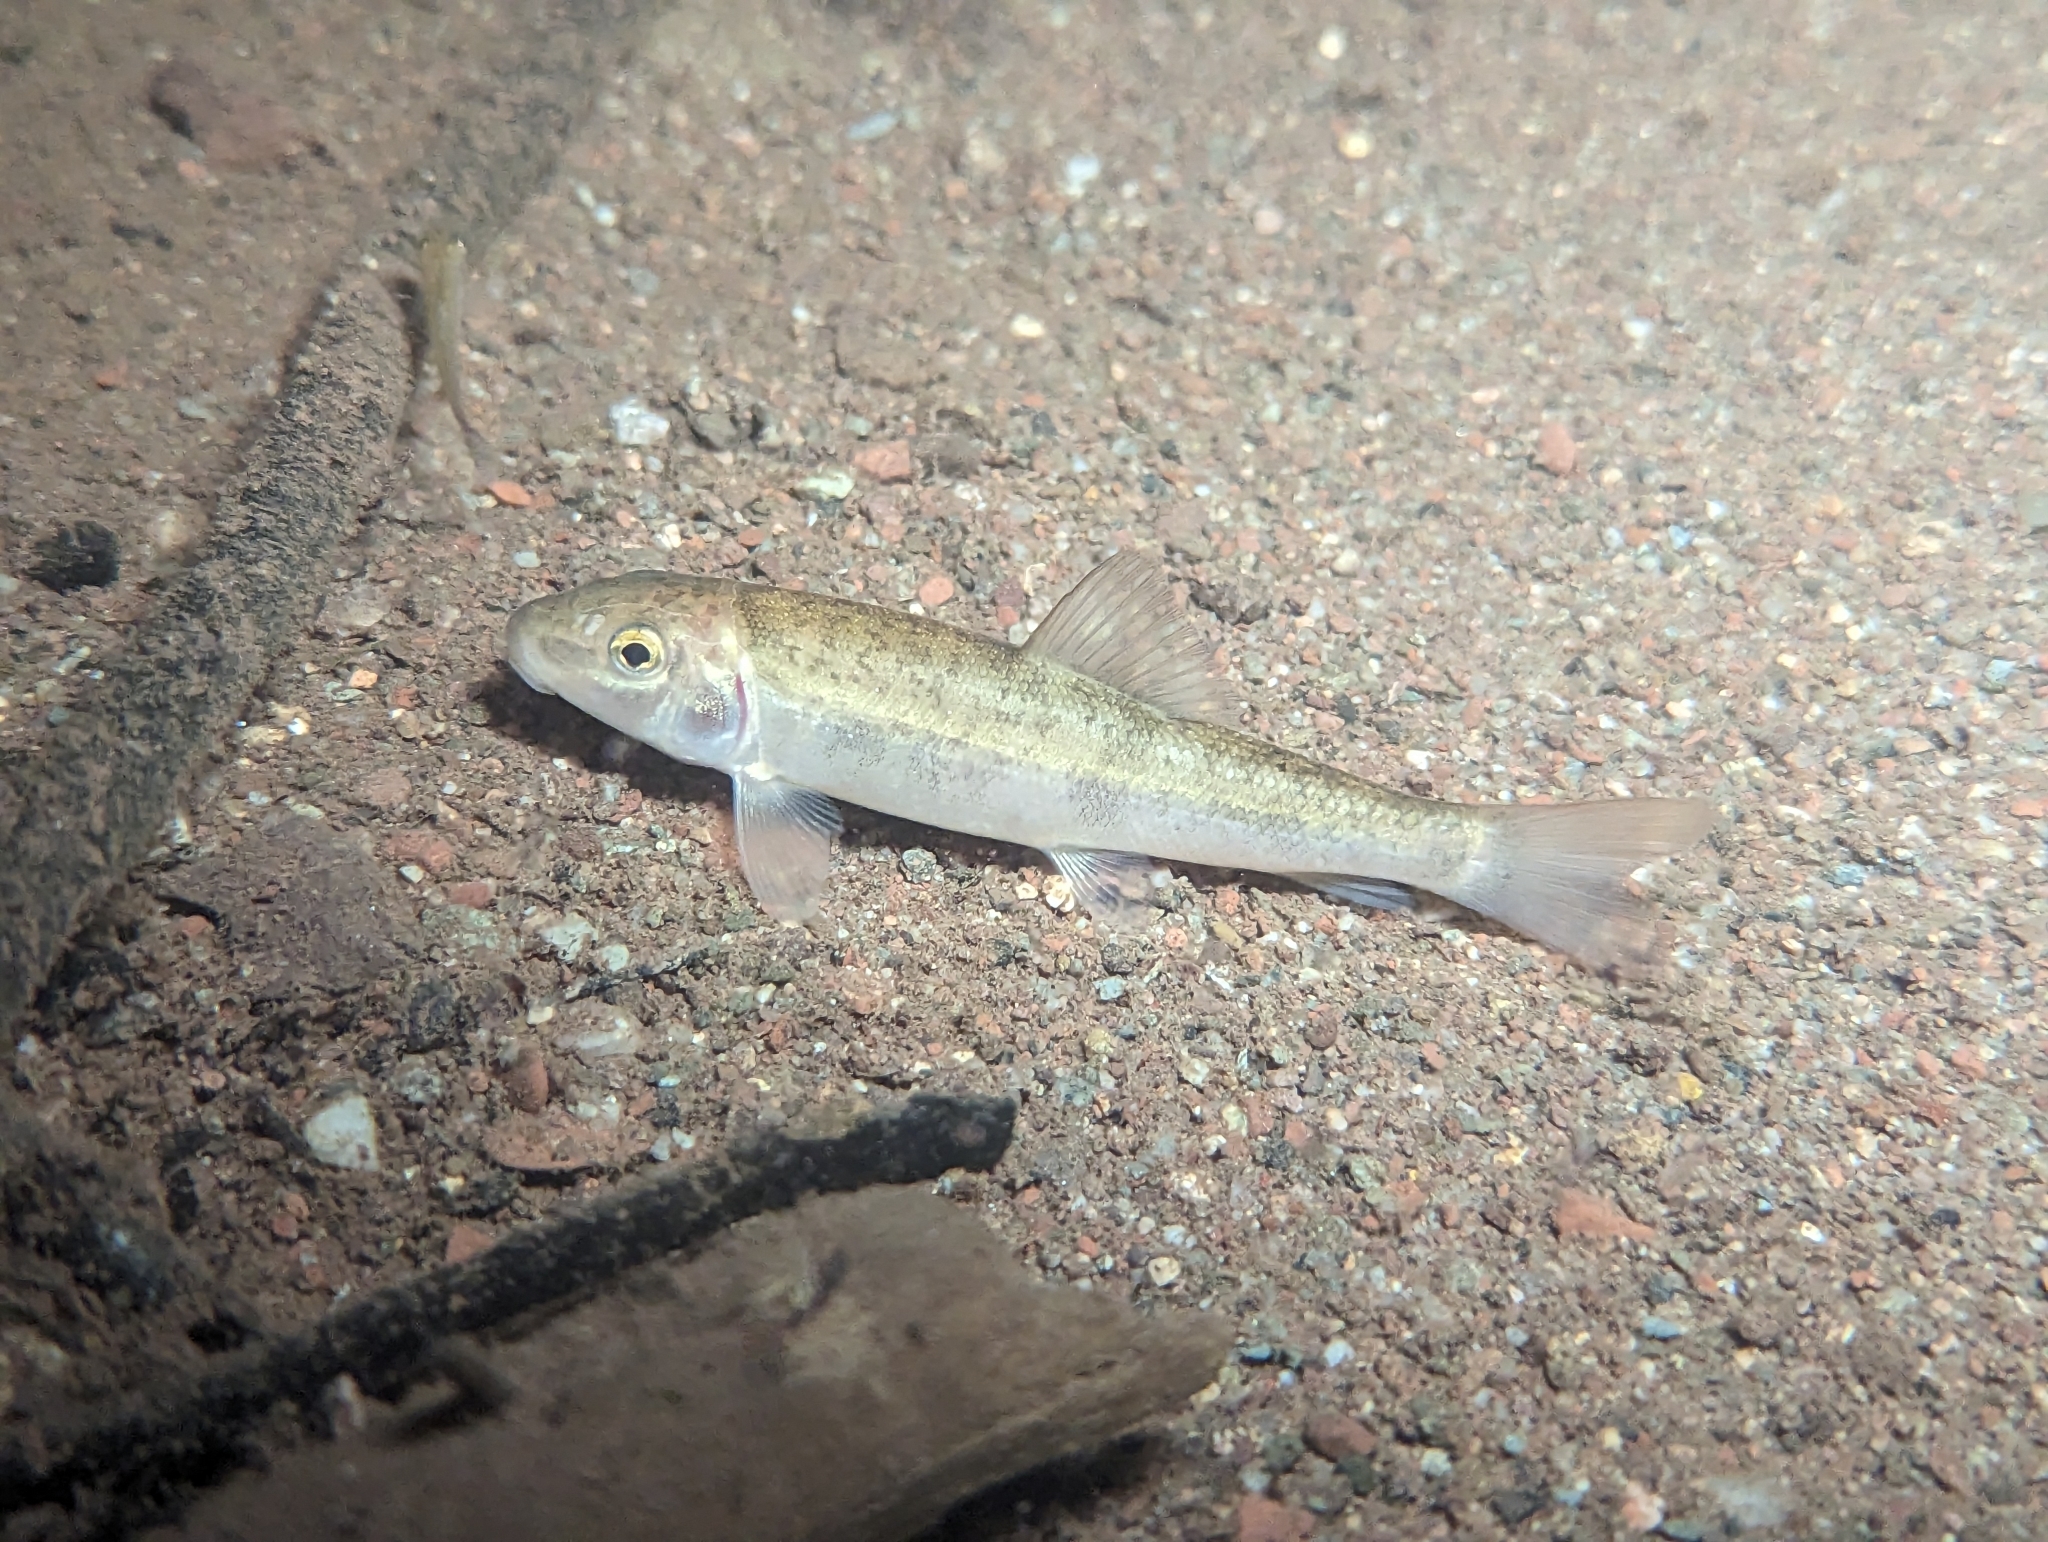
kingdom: Animalia
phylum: Chordata
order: Cypriniformes
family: Catostomidae
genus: Catostomus
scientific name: Catostomus commersonii
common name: White sucker
